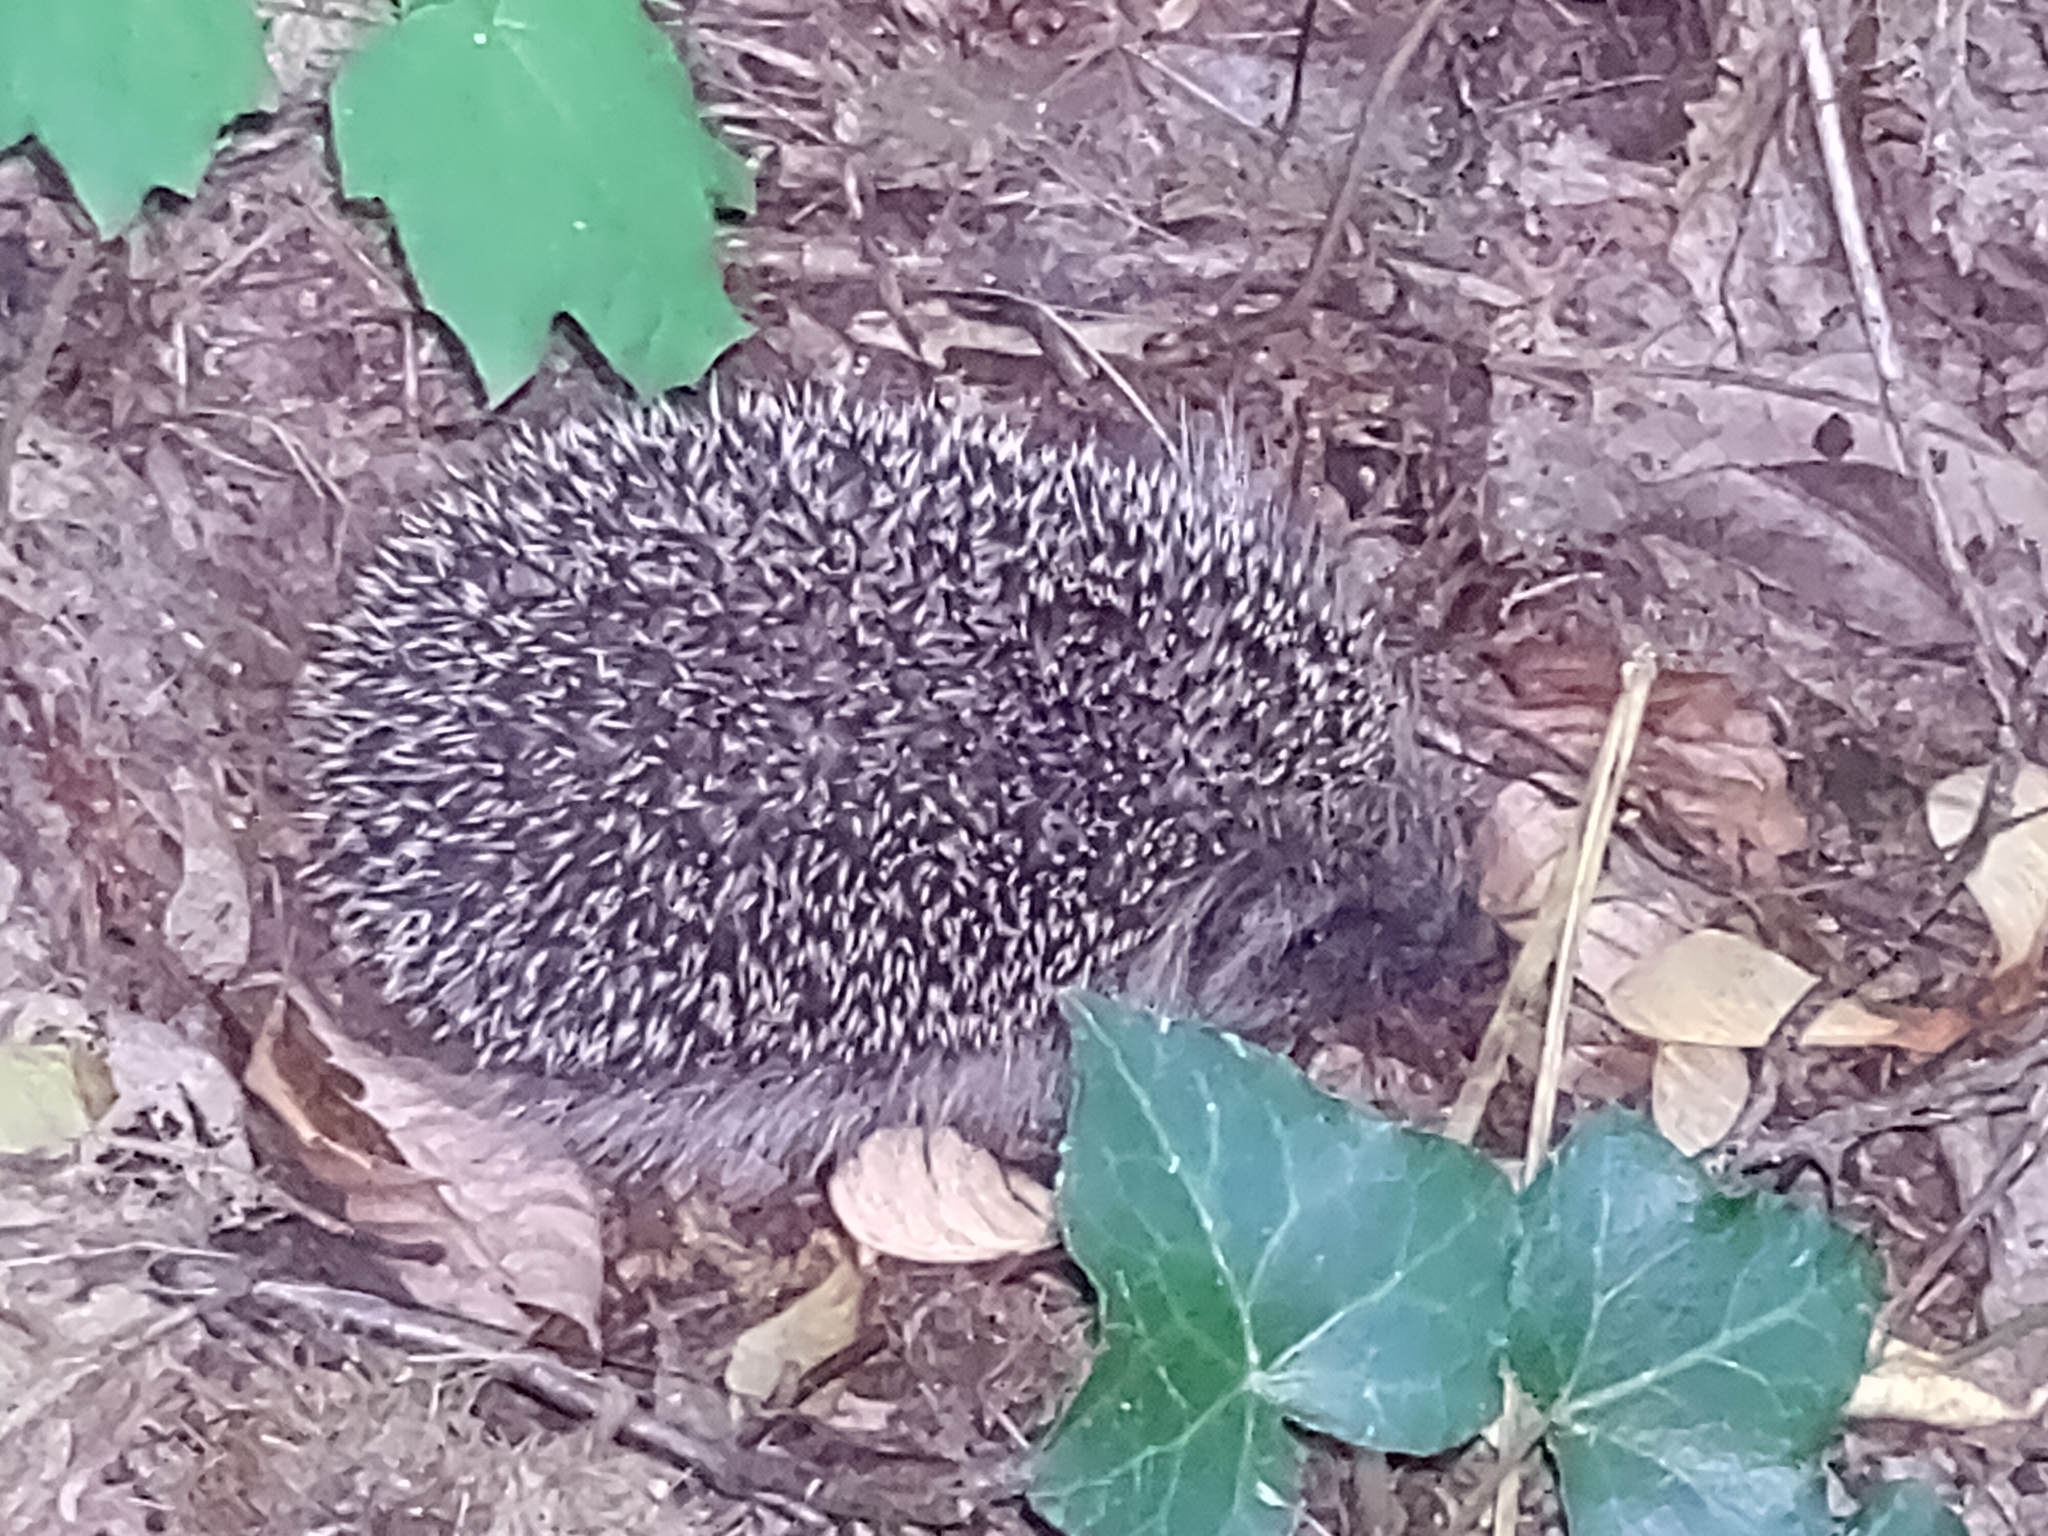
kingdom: Animalia
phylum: Chordata
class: Mammalia
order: Erinaceomorpha
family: Erinaceidae
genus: Erinaceus
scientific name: Erinaceus europaeus
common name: West european hedgehog
